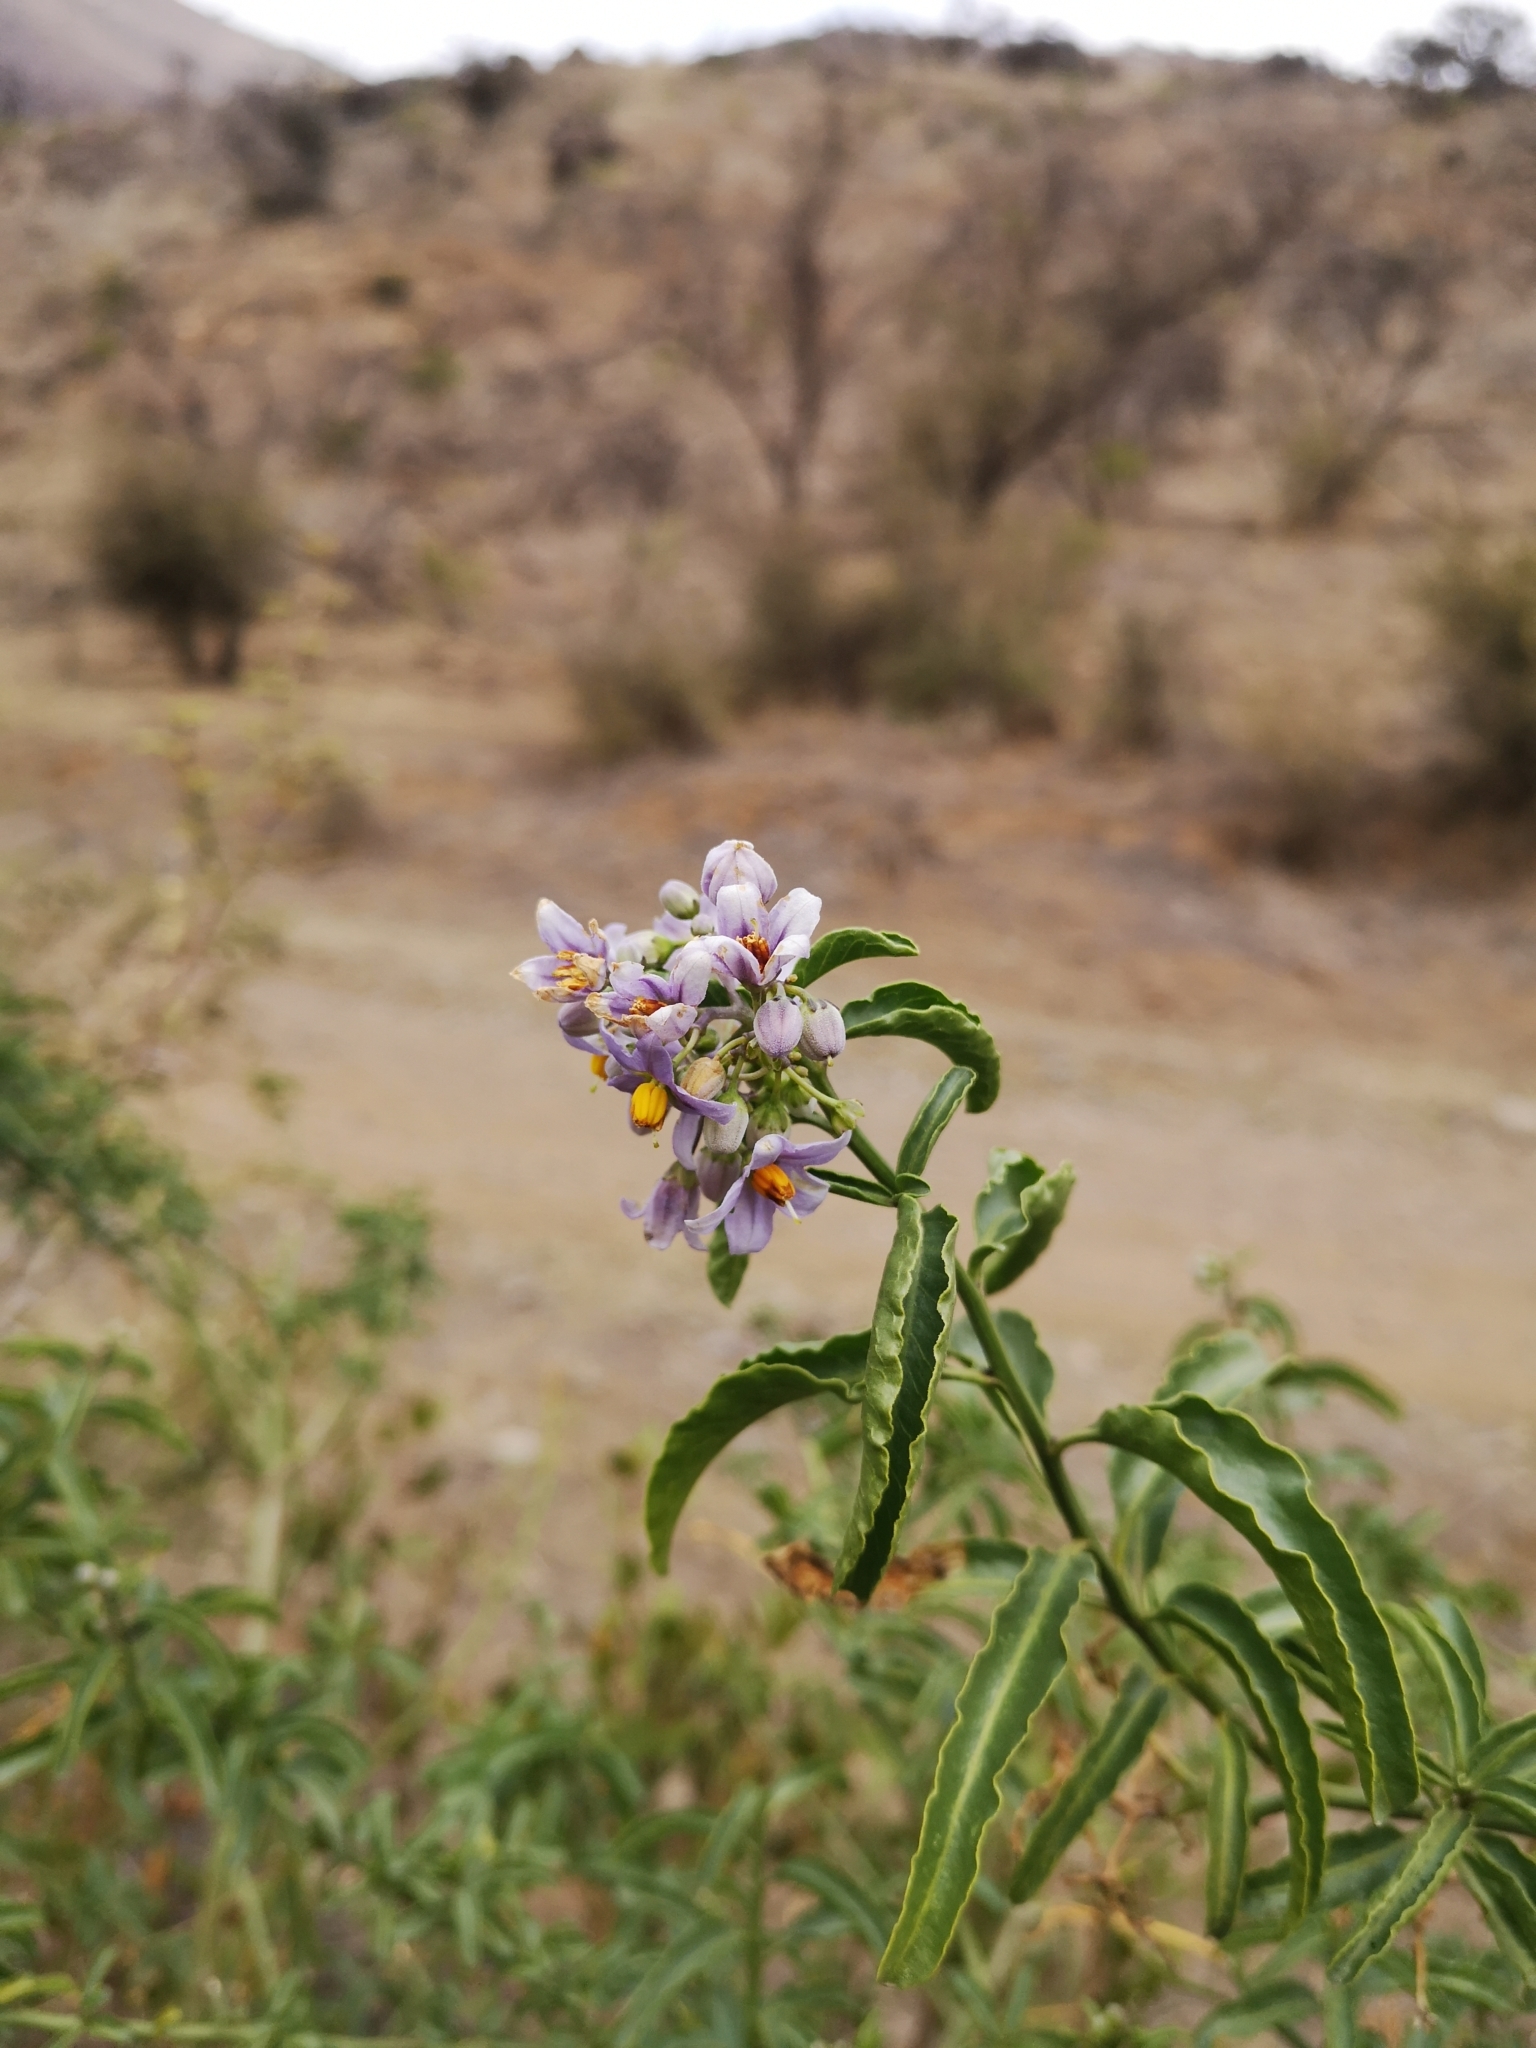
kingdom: Plantae
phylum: Tracheophyta
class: Magnoliopsida
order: Solanales
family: Solanaceae
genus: Solanum
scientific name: Solanum crispum
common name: Chilean nightshade
